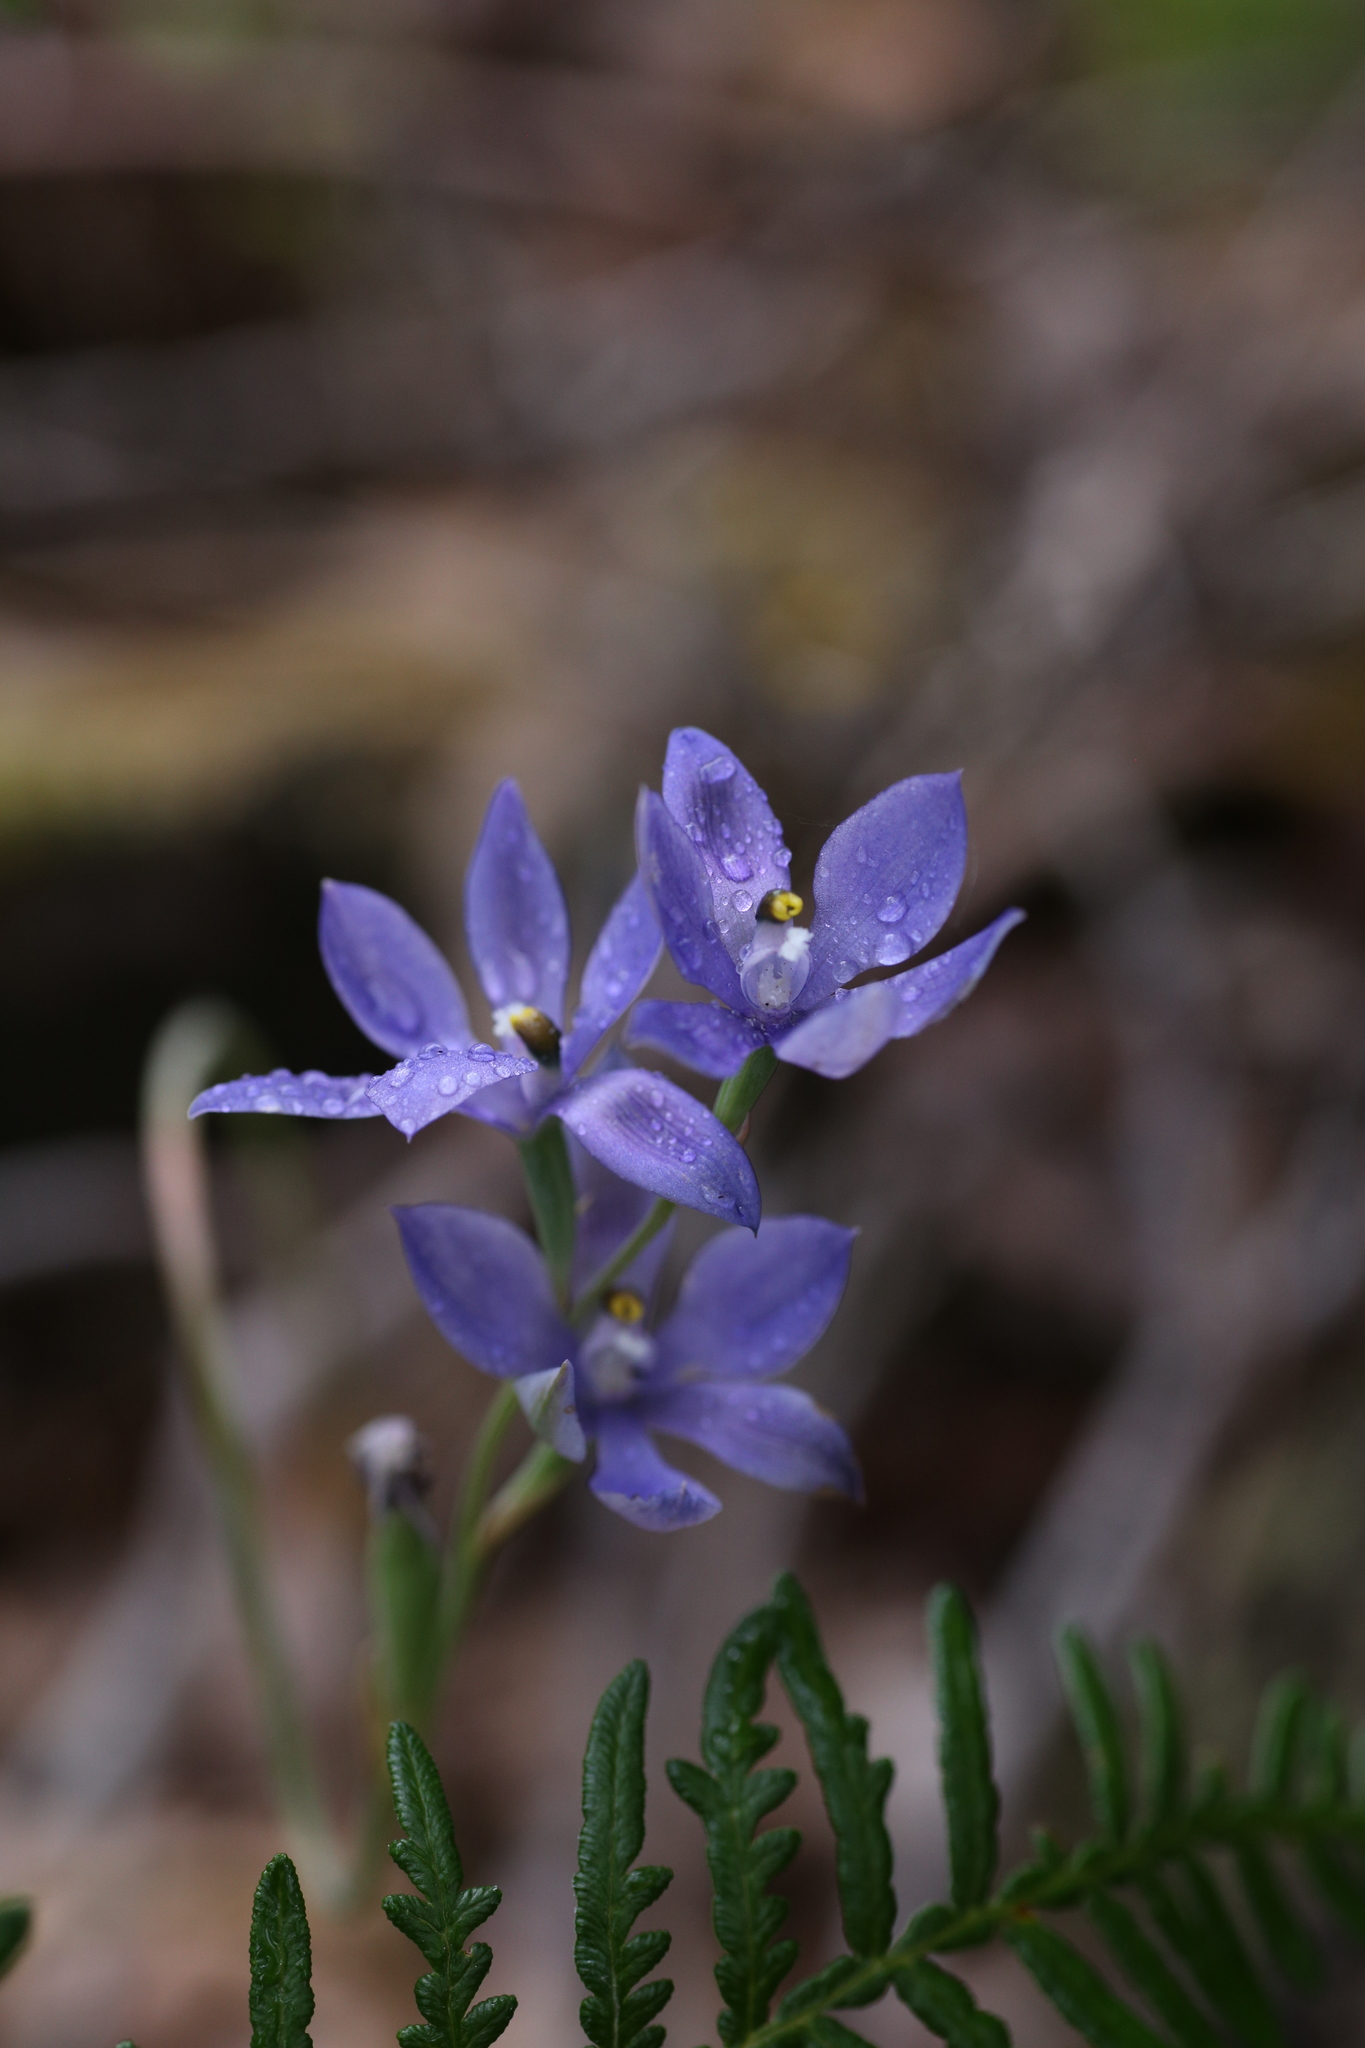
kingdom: Plantae
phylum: Tracheophyta
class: Liliopsida
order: Asparagales
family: Orchidaceae
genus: Thelymitra
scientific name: Thelymitra paludosa
